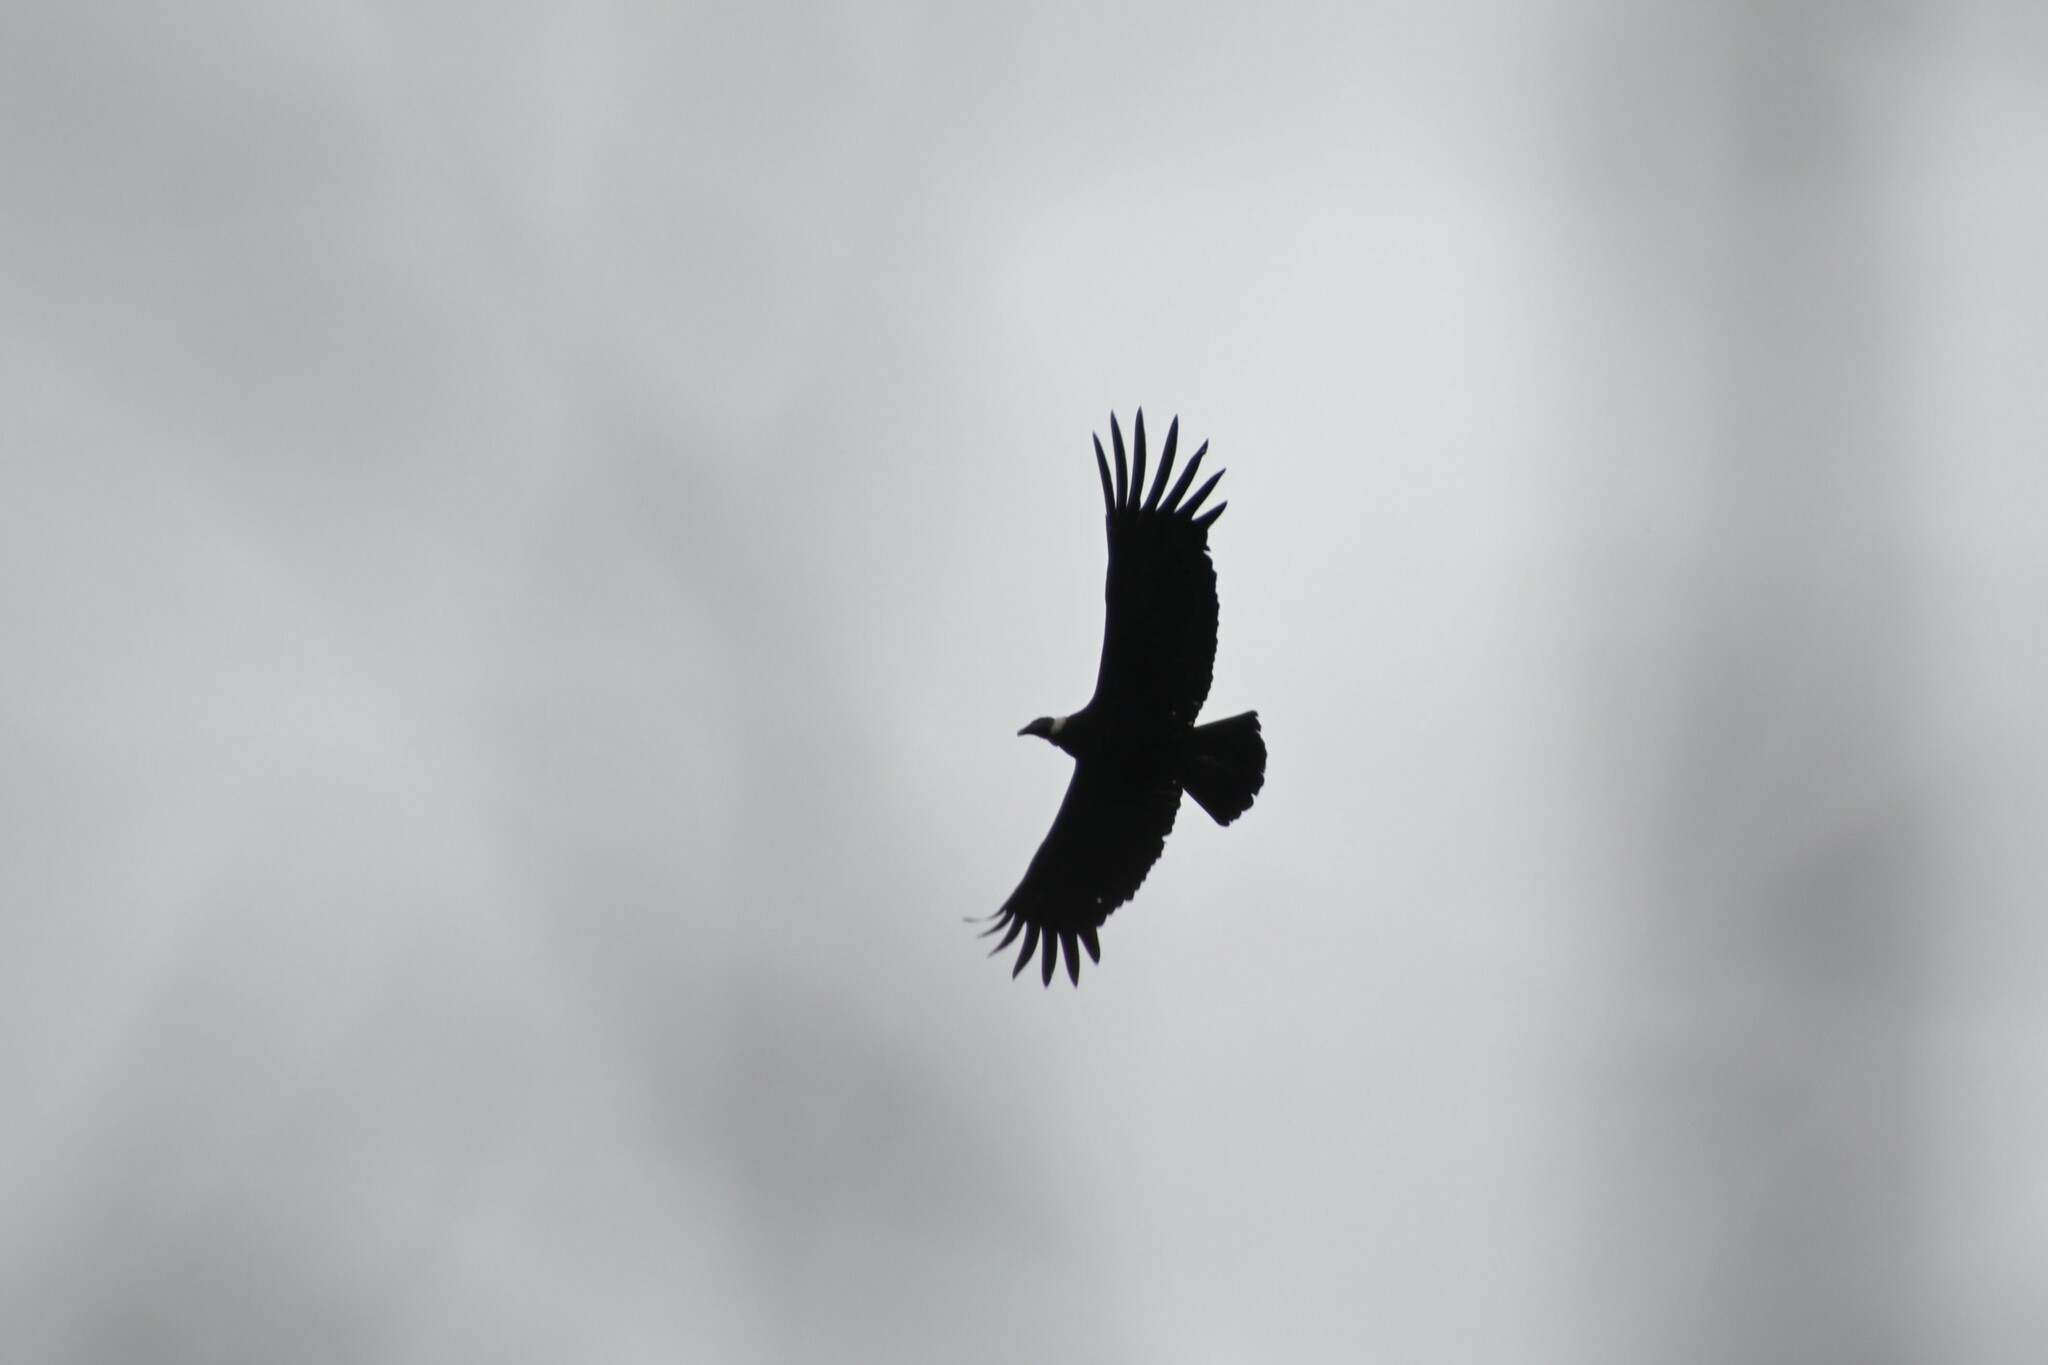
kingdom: Animalia
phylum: Chordata
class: Aves
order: Accipitriformes
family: Cathartidae
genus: Vultur
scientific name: Vultur gryphus
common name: Andean condor
